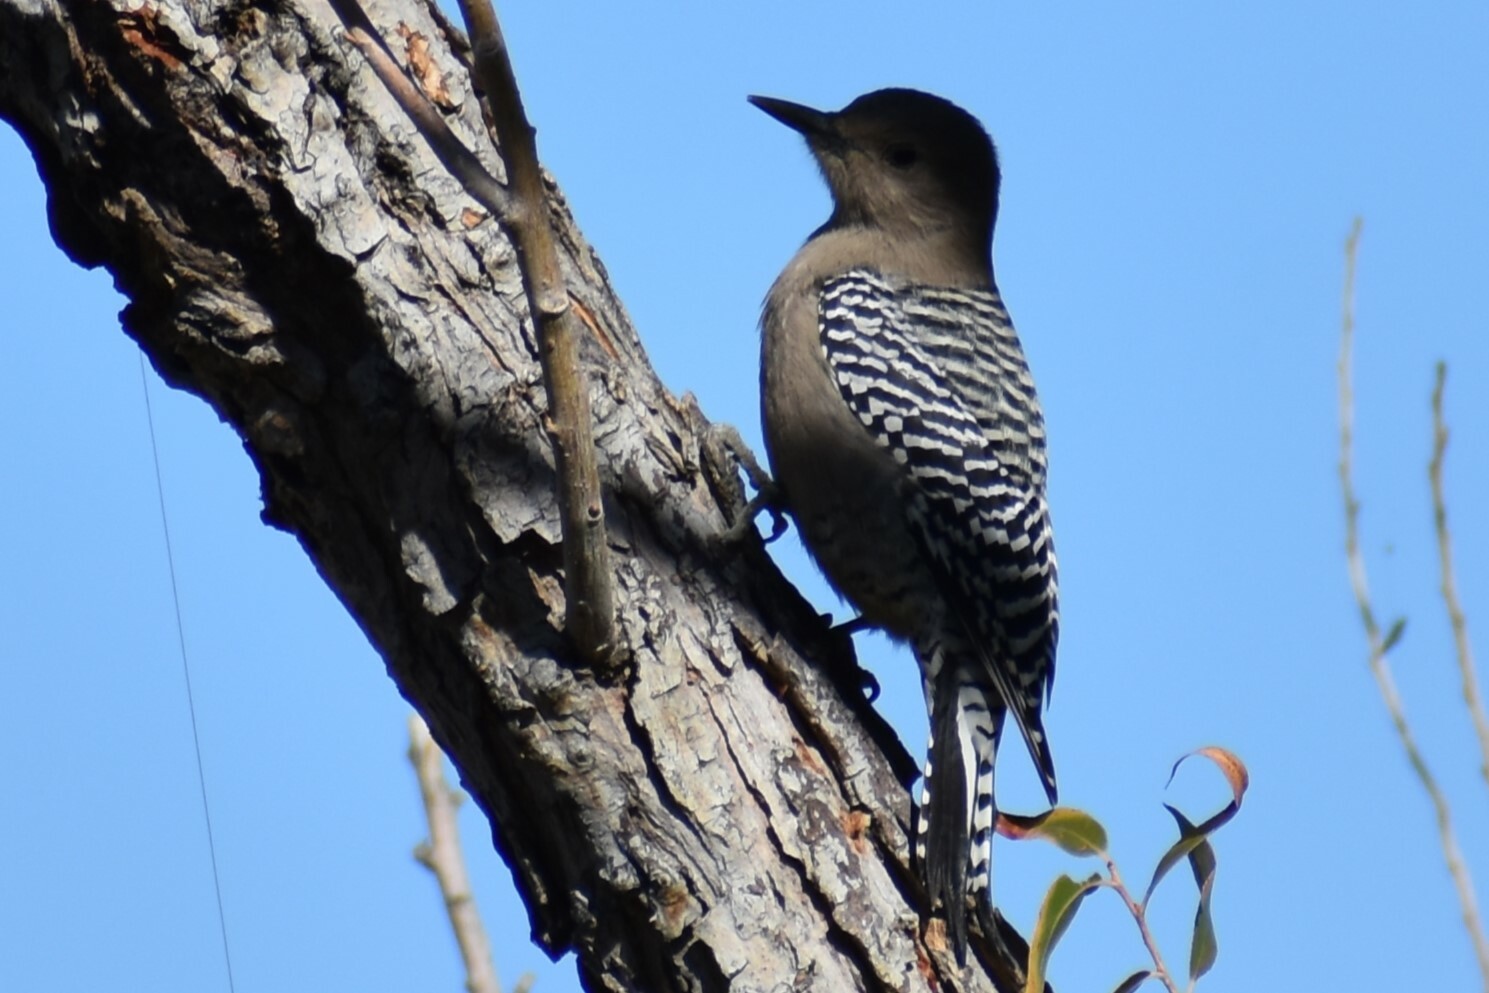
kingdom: Animalia
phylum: Chordata
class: Aves
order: Piciformes
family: Picidae
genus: Melanerpes
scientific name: Melanerpes uropygialis
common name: Gila woodpecker
